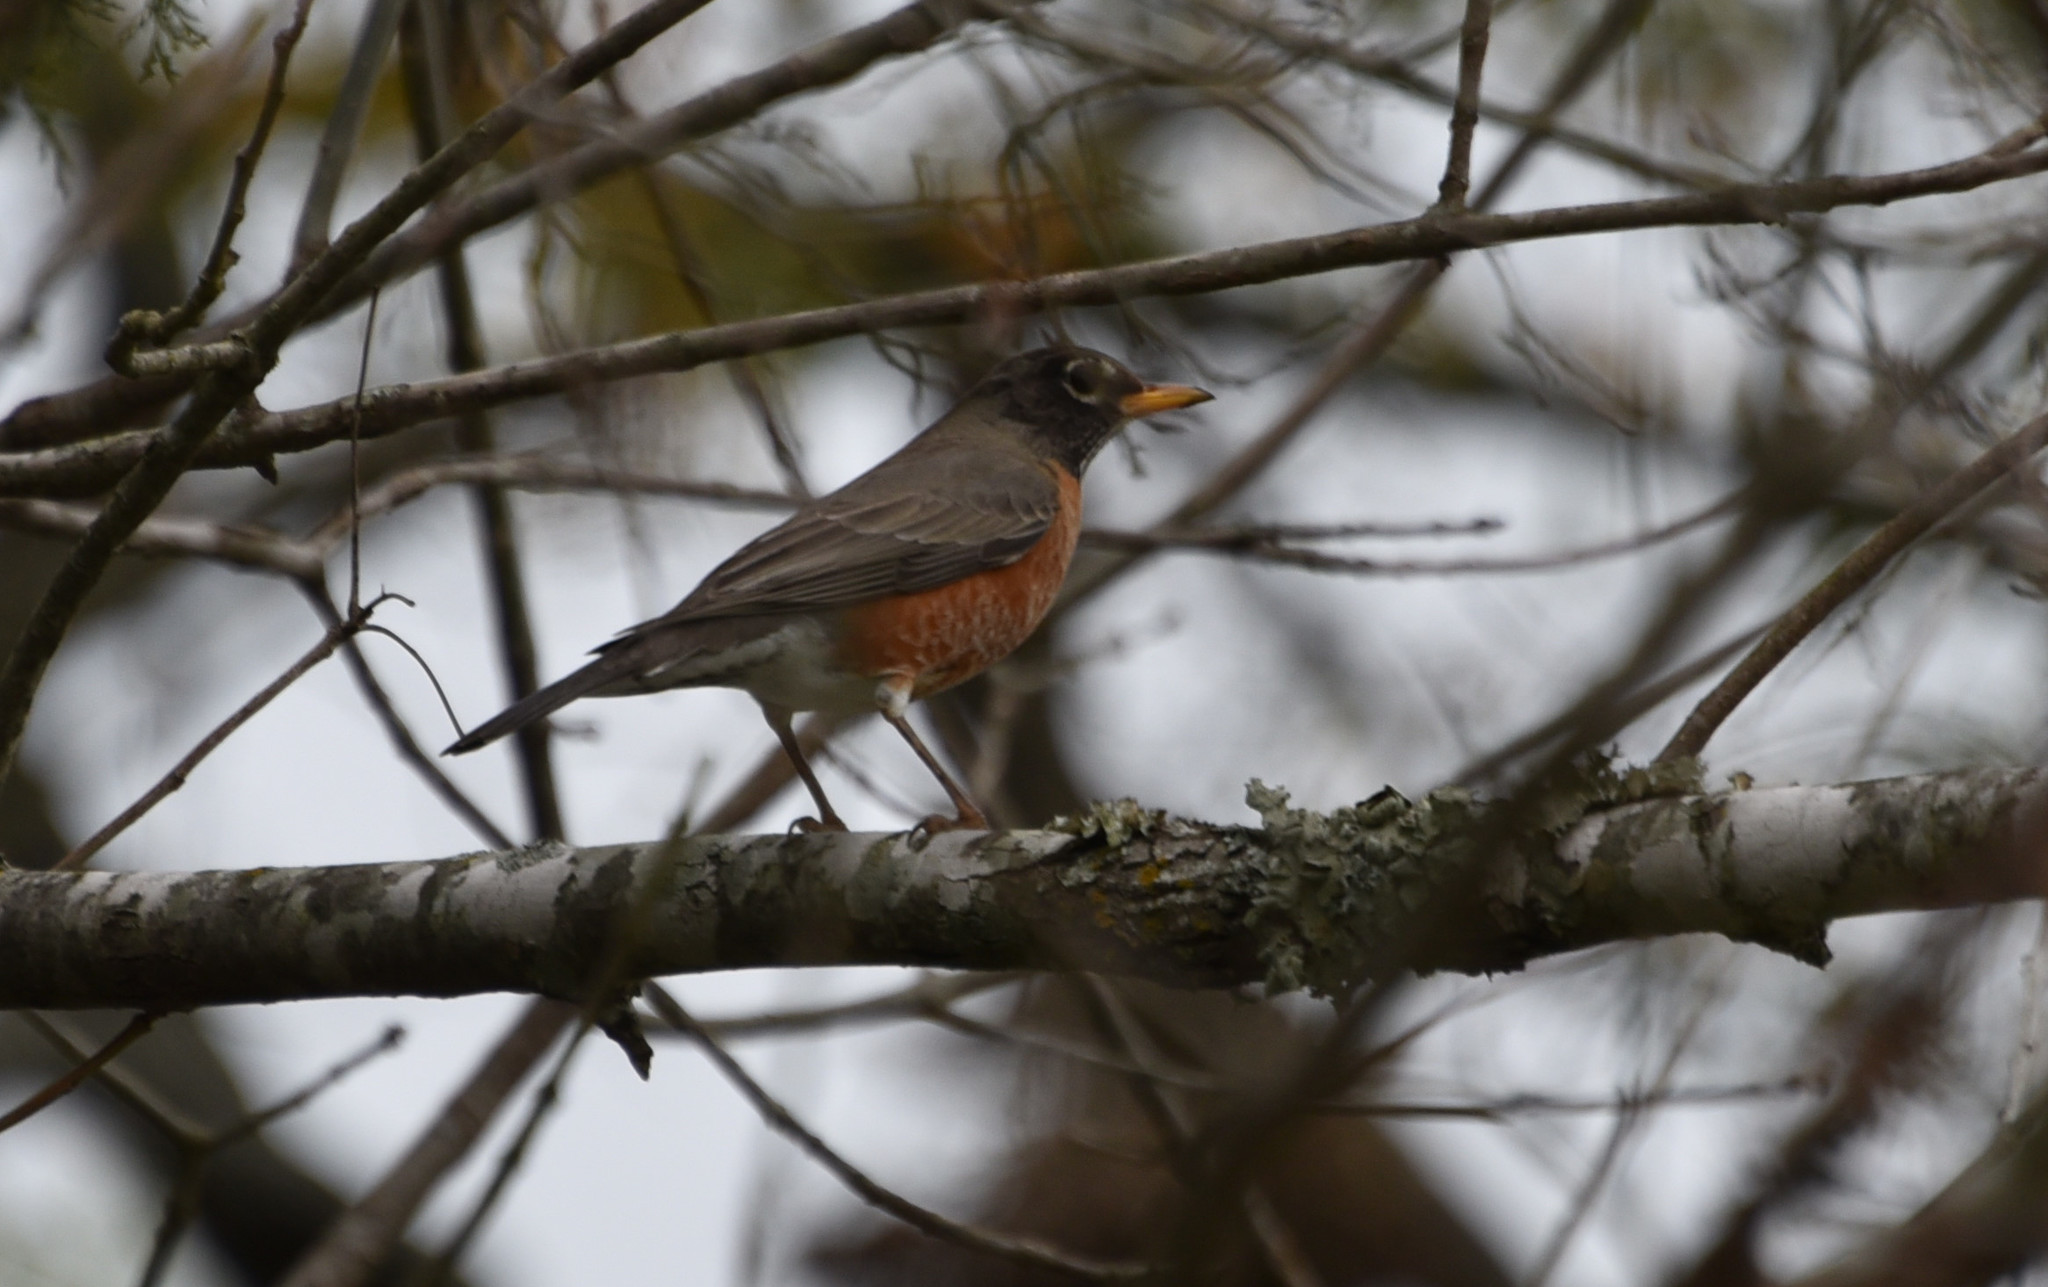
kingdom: Animalia
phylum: Chordata
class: Aves
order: Passeriformes
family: Turdidae
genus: Turdus
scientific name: Turdus migratorius
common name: American robin
